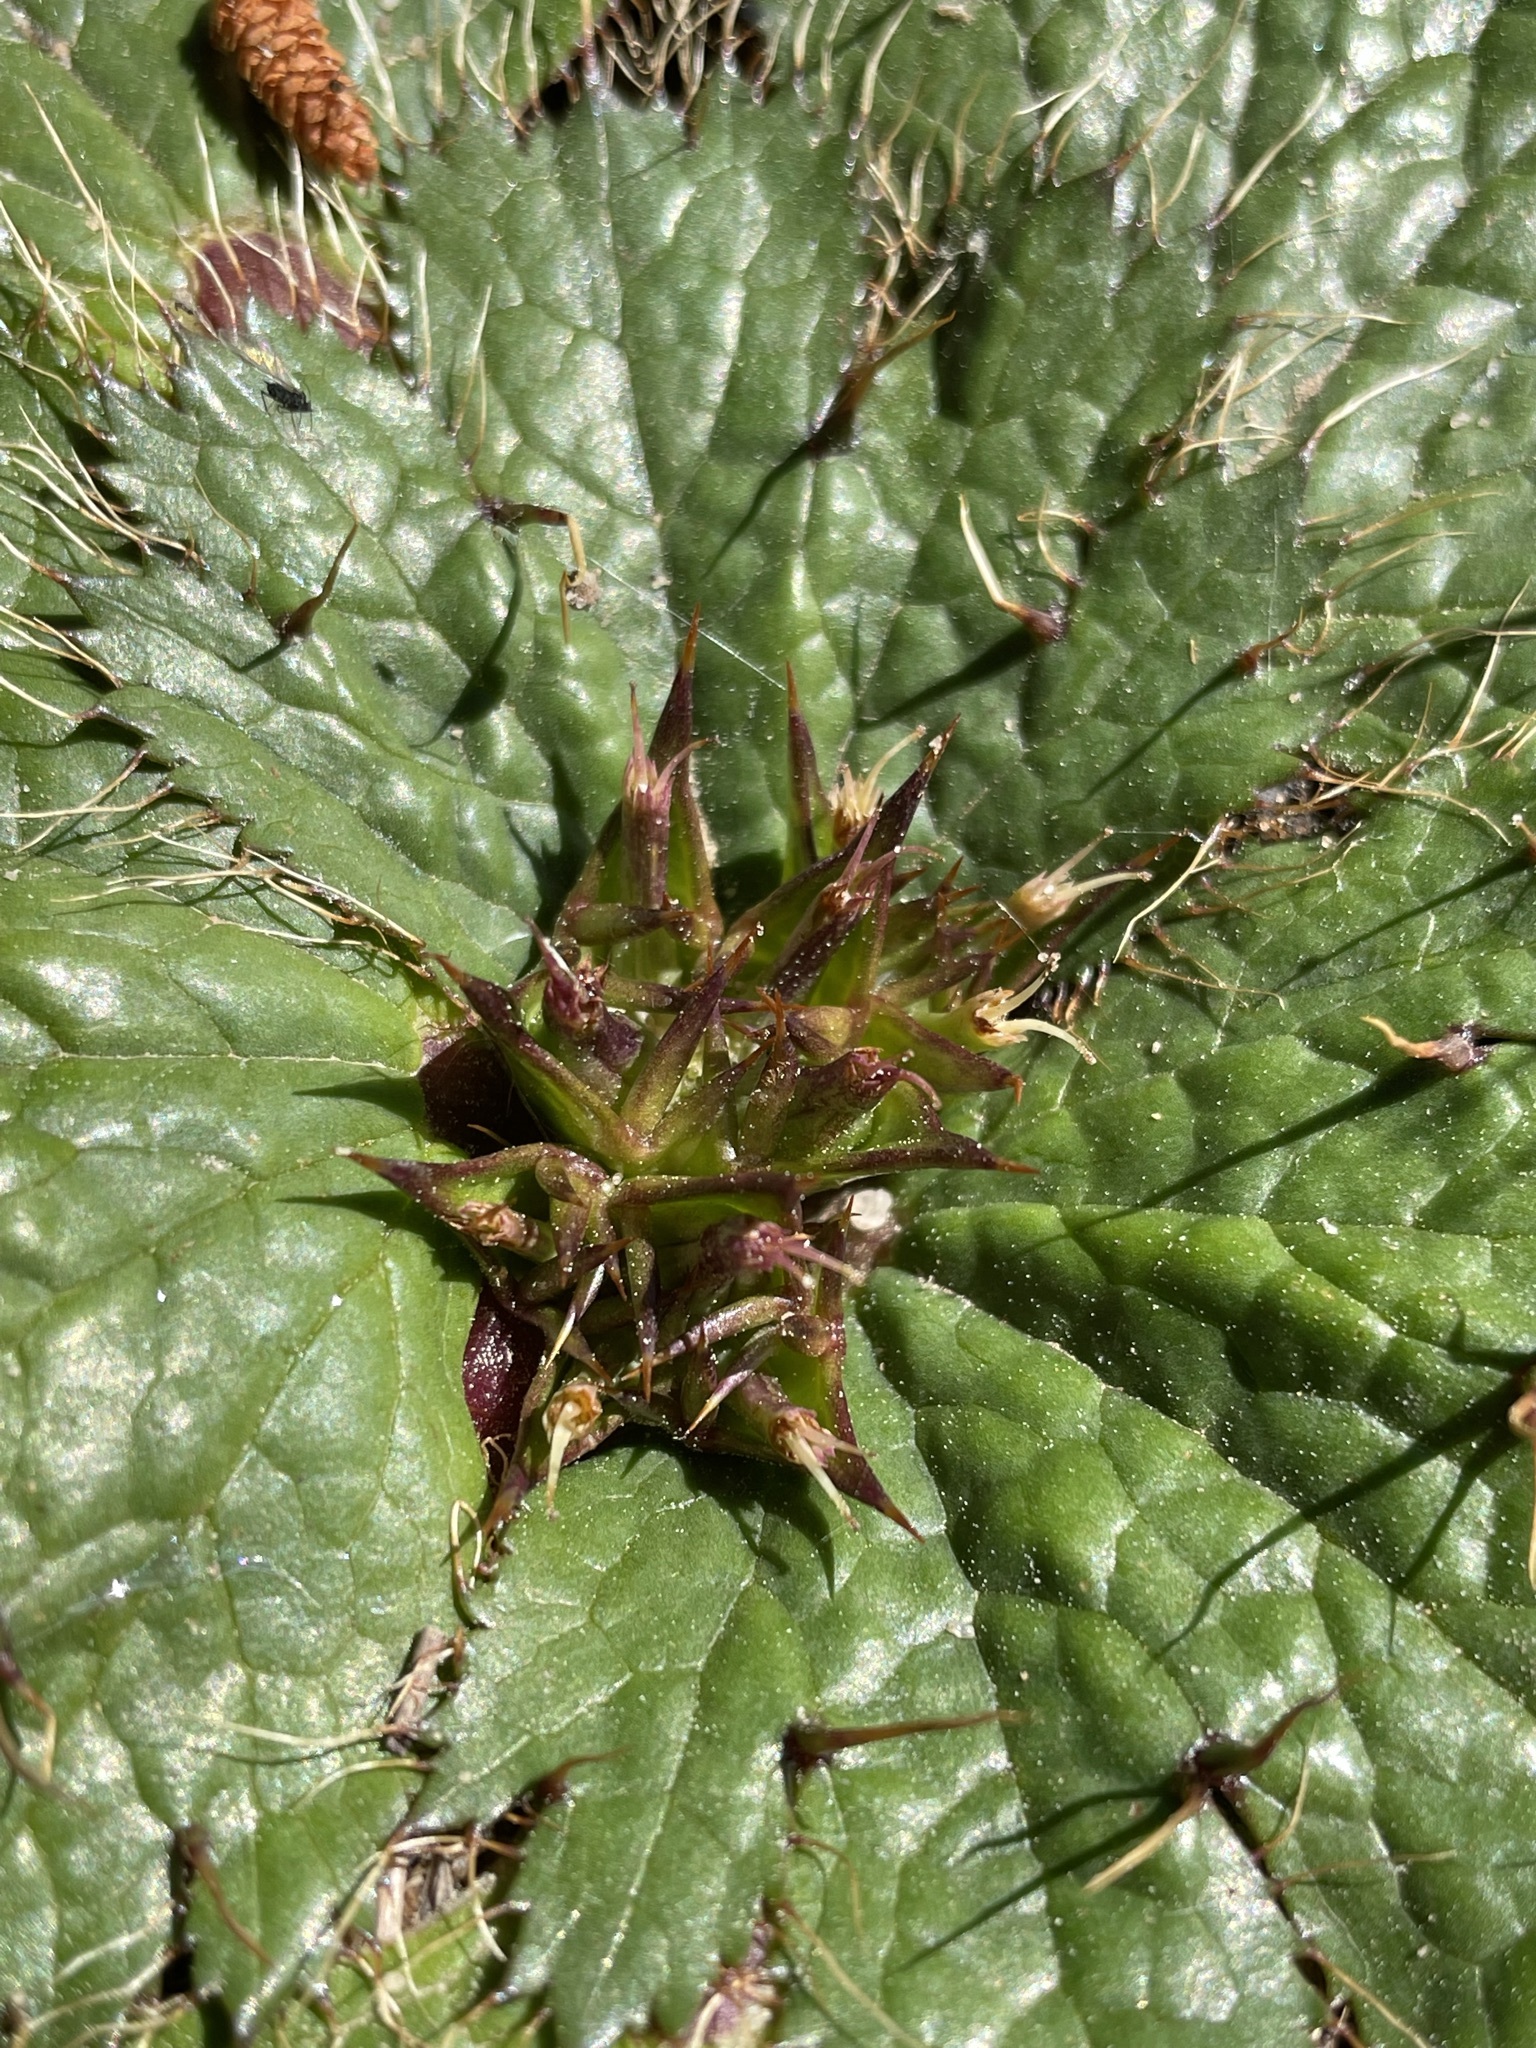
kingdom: Plantae
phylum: Tracheophyta
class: Magnoliopsida
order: Apiales
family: Apiaceae
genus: Arctopus
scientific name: Arctopus echinatus
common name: Platdoring
